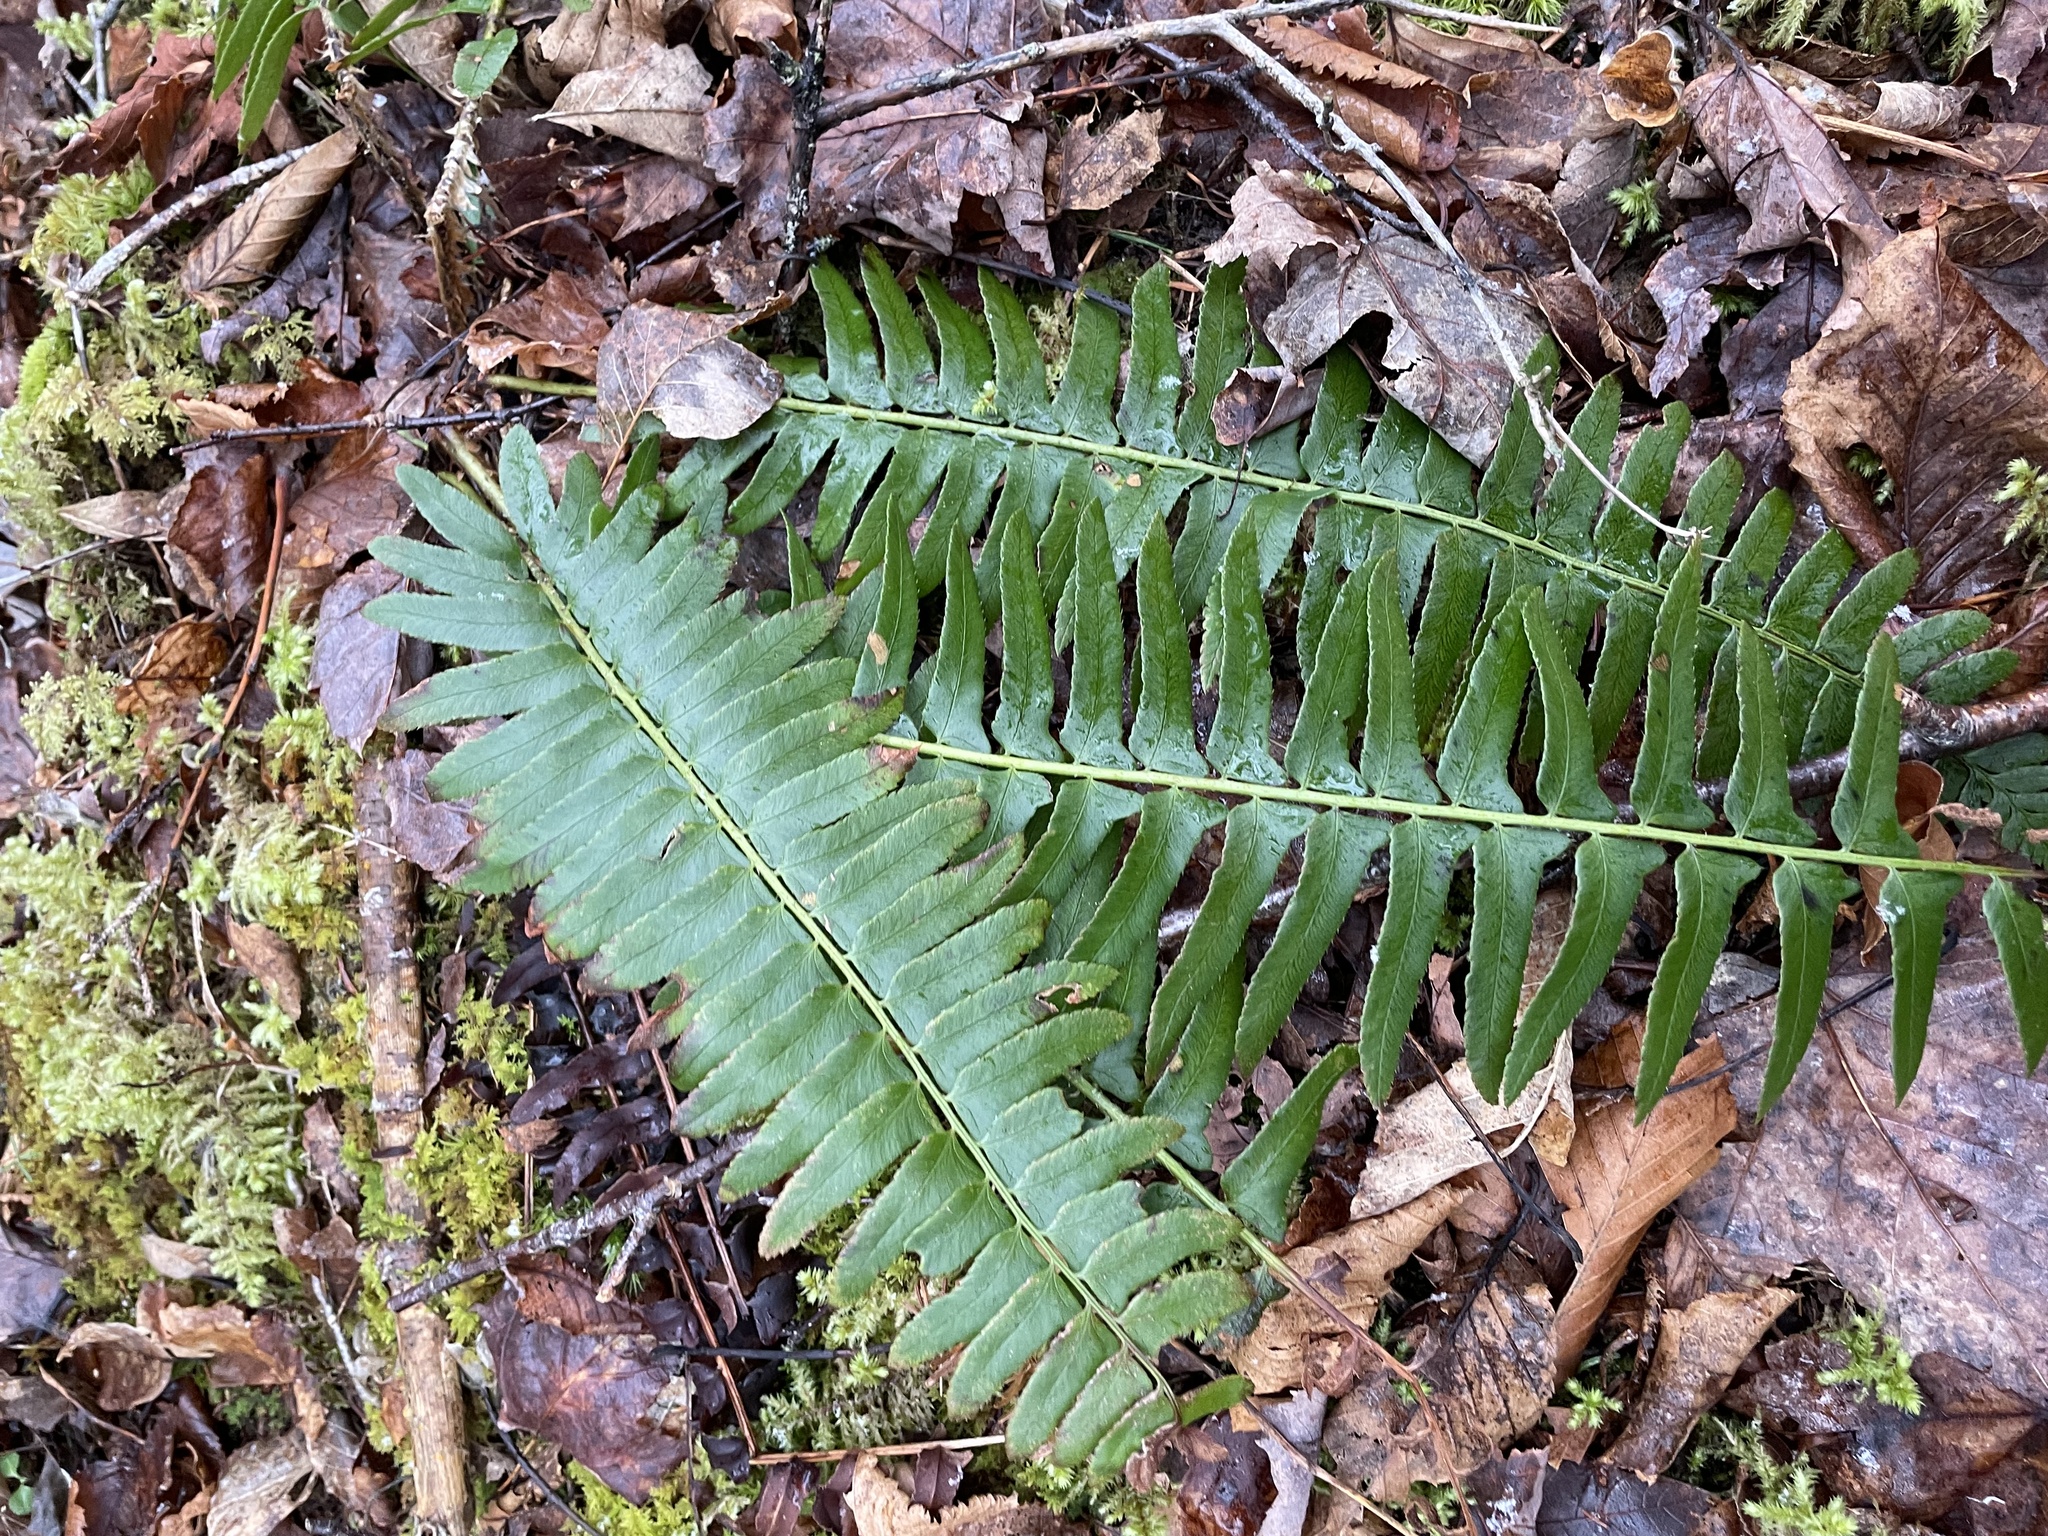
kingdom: Plantae
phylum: Tracheophyta
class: Polypodiopsida
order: Polypodiales
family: Dryopteridaceae
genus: Polystichum
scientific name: Polystichum acrostichoides
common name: Christmas fern
